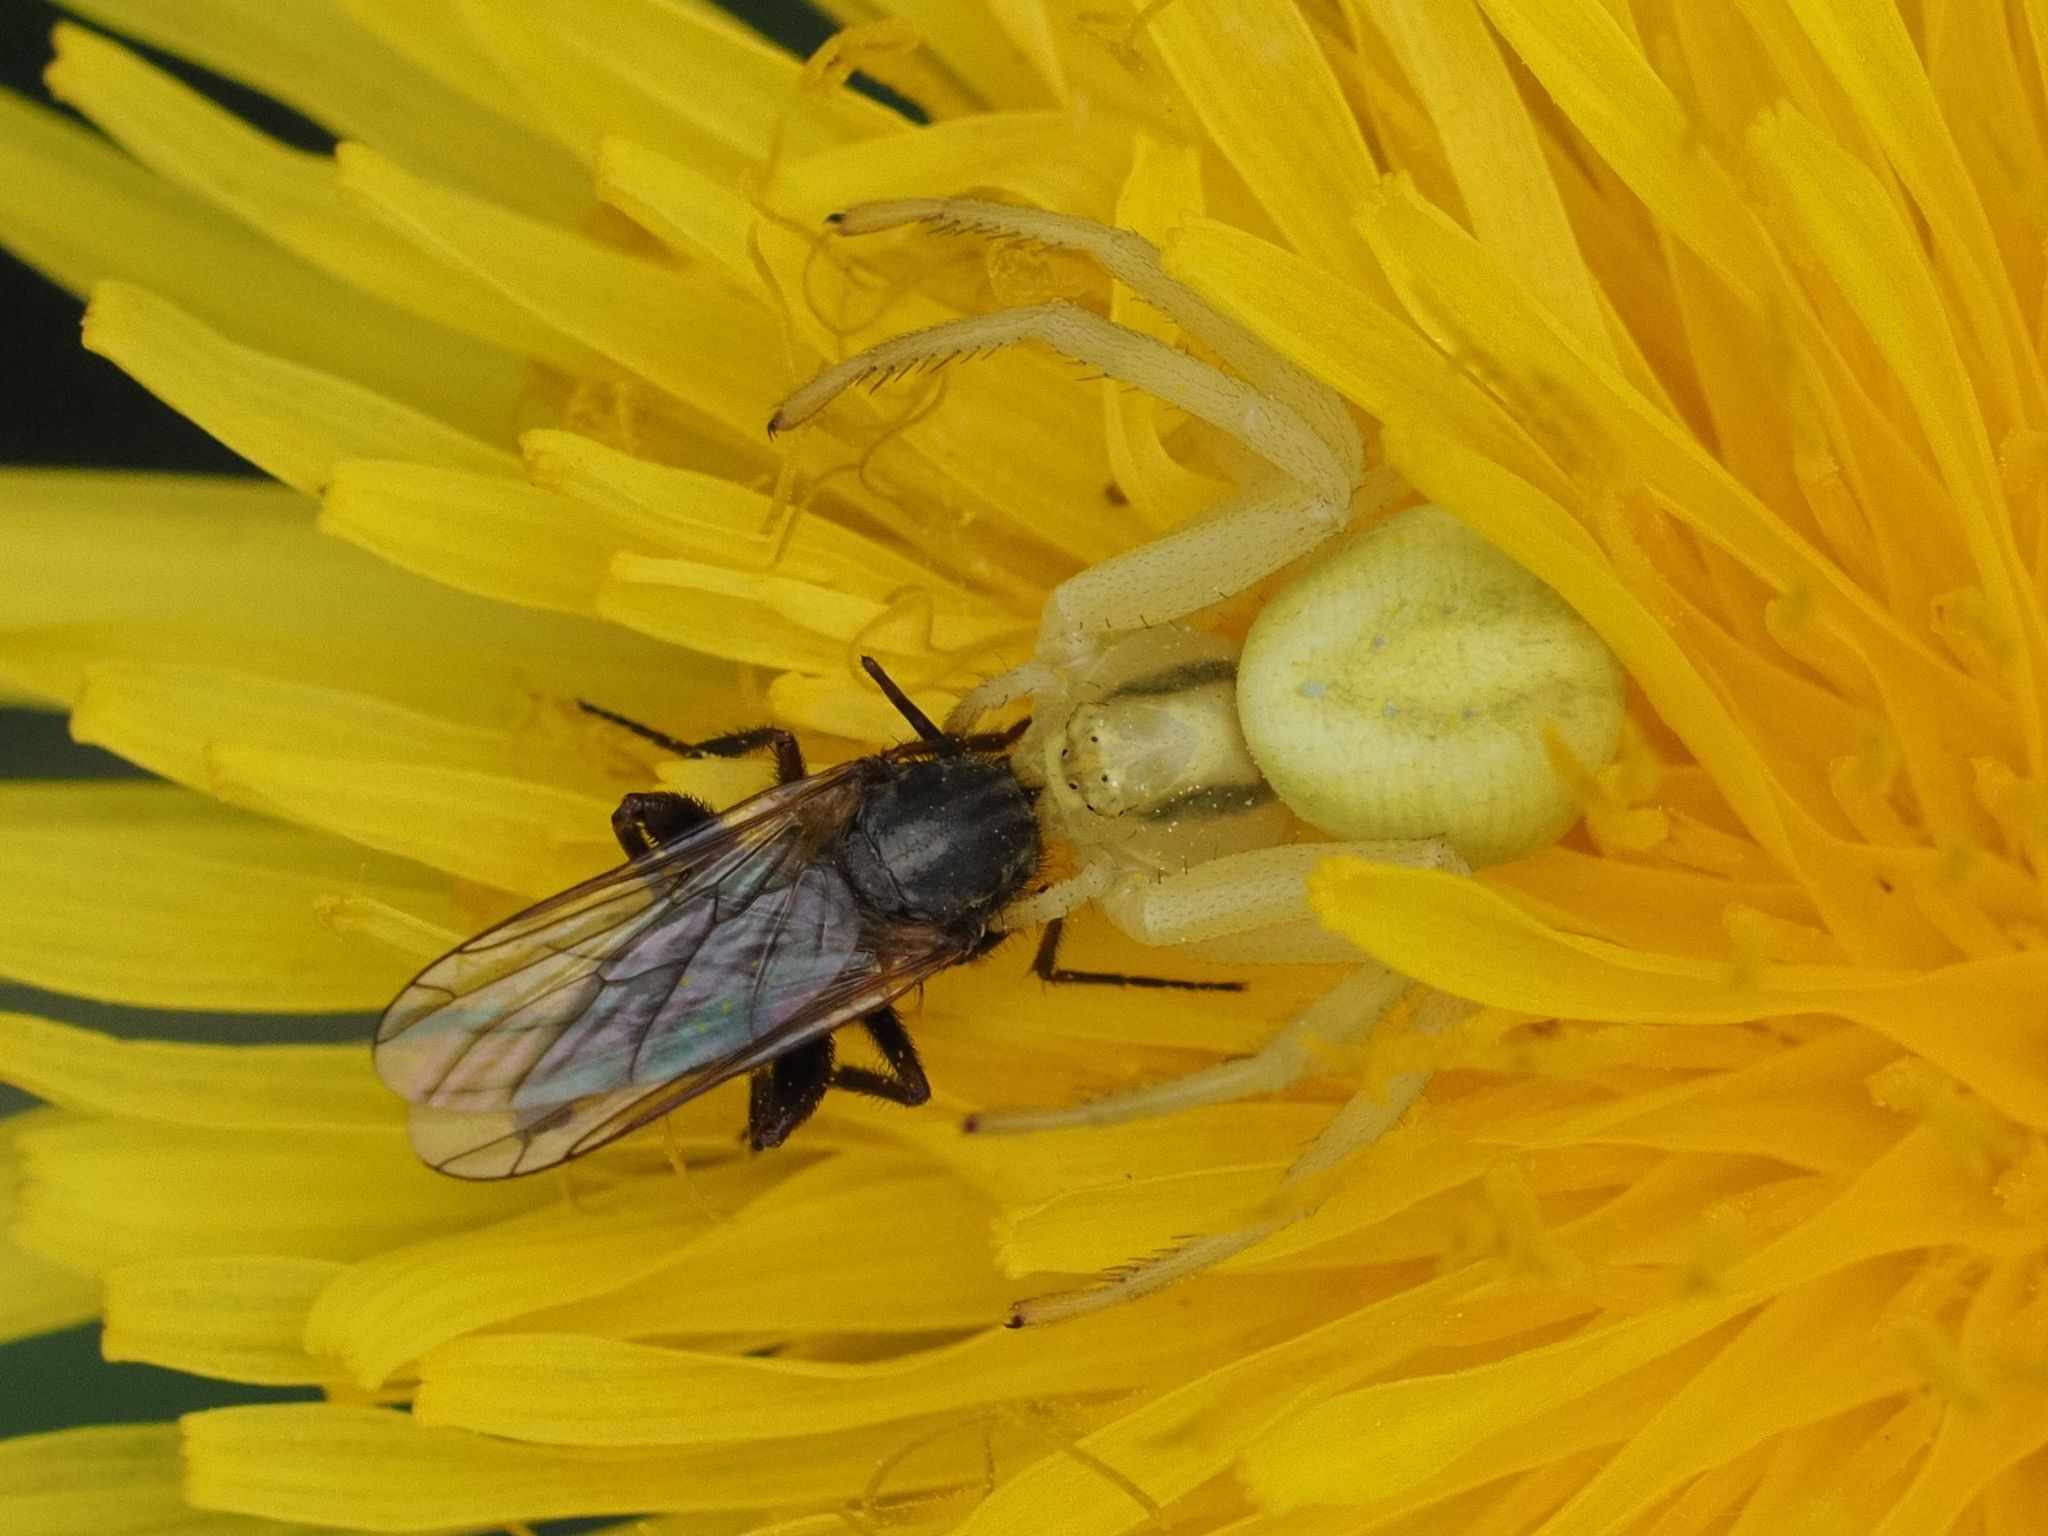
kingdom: Animalia
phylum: Arthropoda
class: Arachnida
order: Araneae
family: Thomisidae
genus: Misumena
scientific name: Misumena vatia
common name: Goldenrod crab spider
